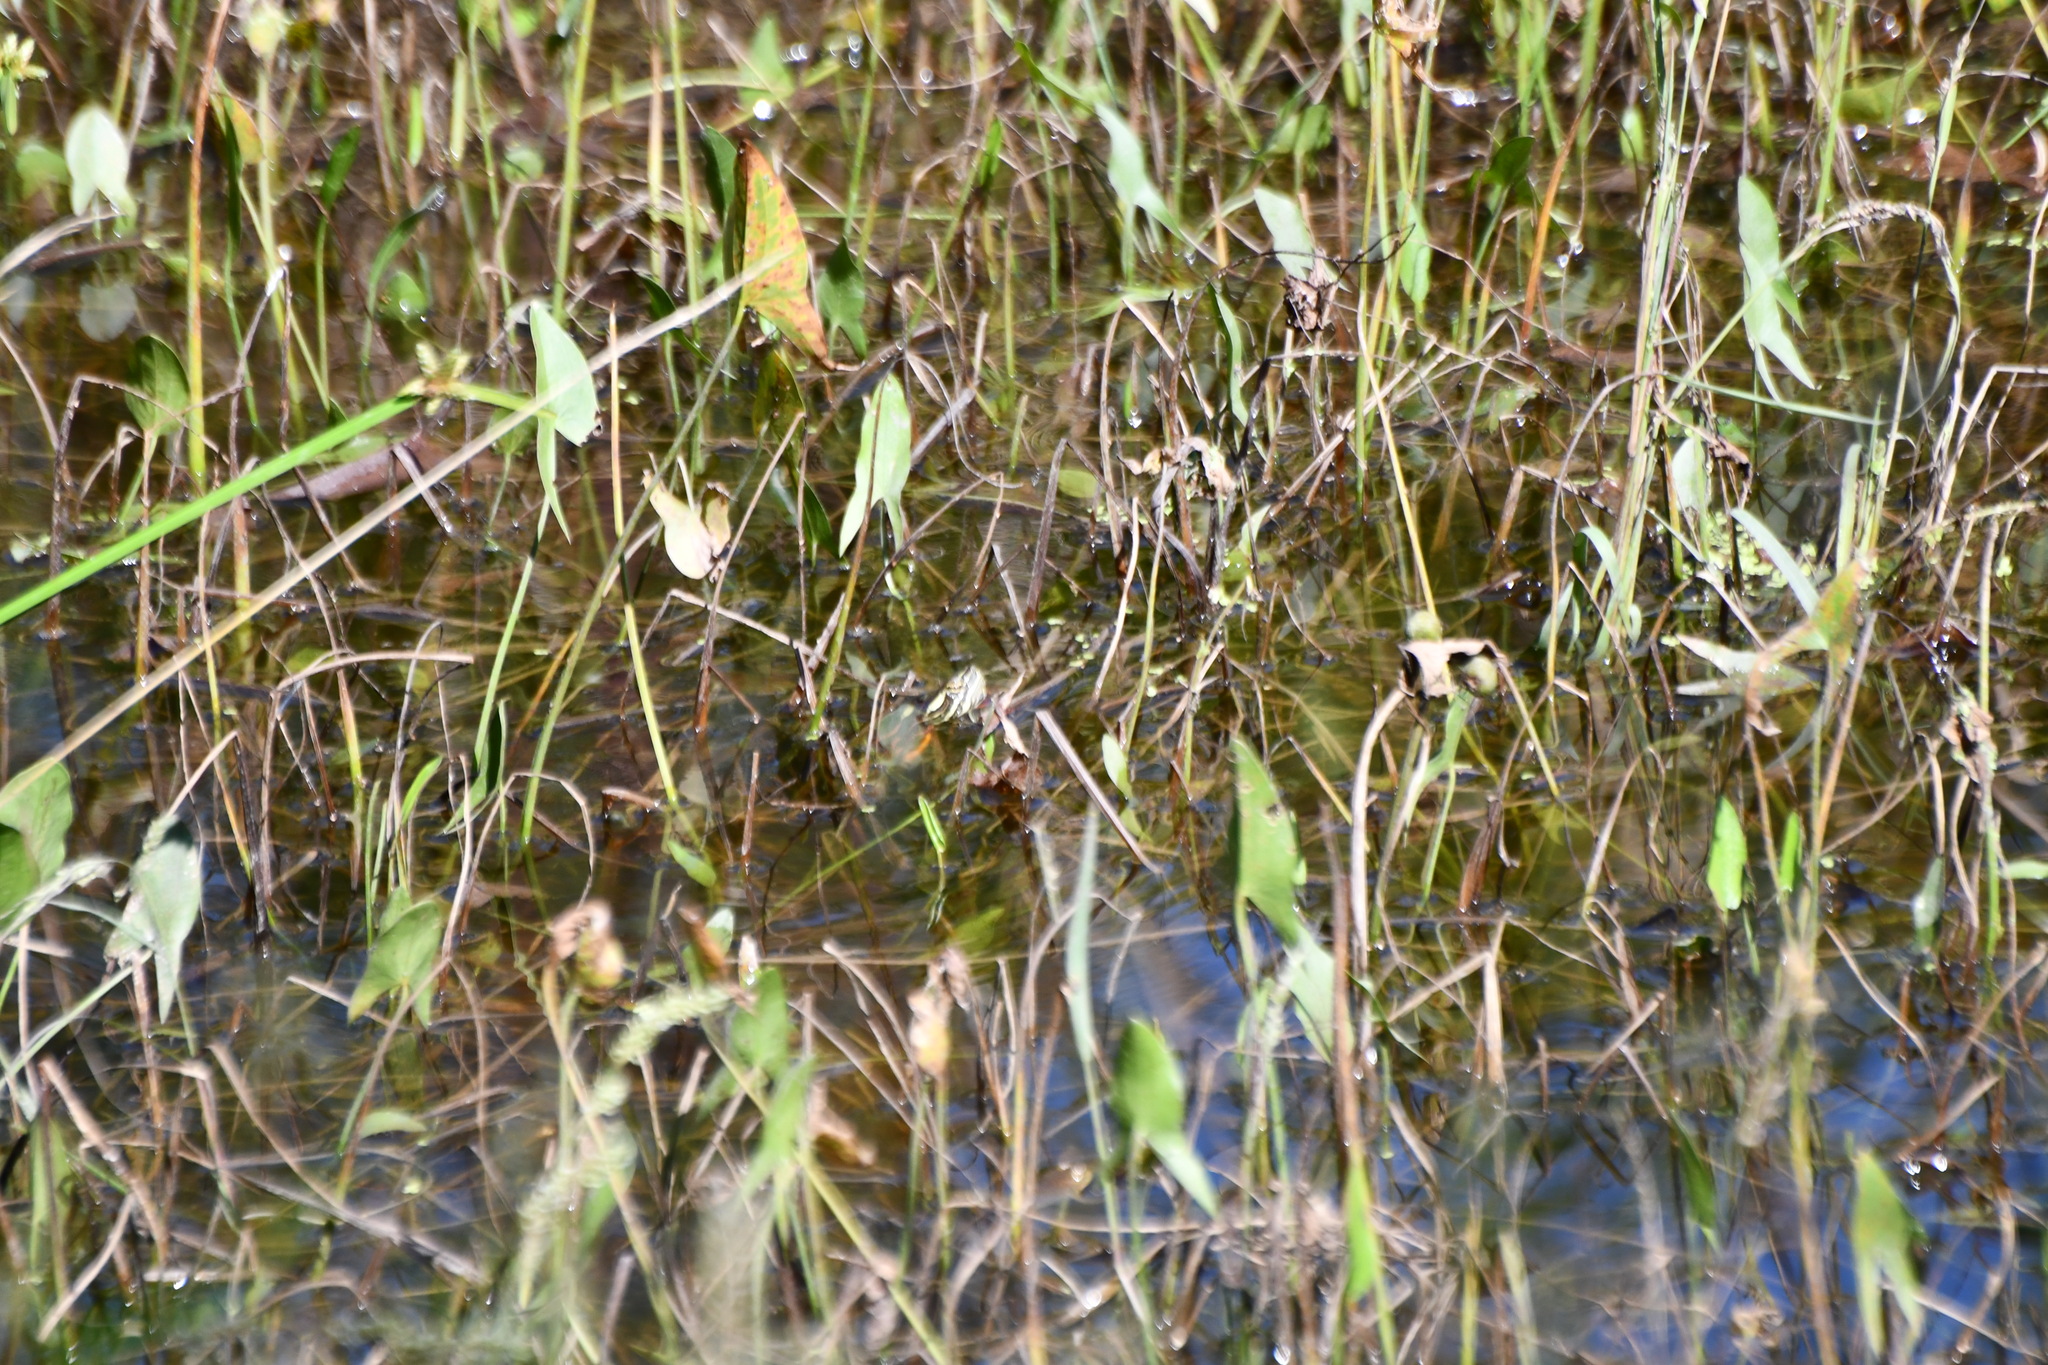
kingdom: Animalia
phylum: Chordata
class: Testudines
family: Emydidae
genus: Chrysemys
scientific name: Chrysemys picta
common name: Painted turtle
